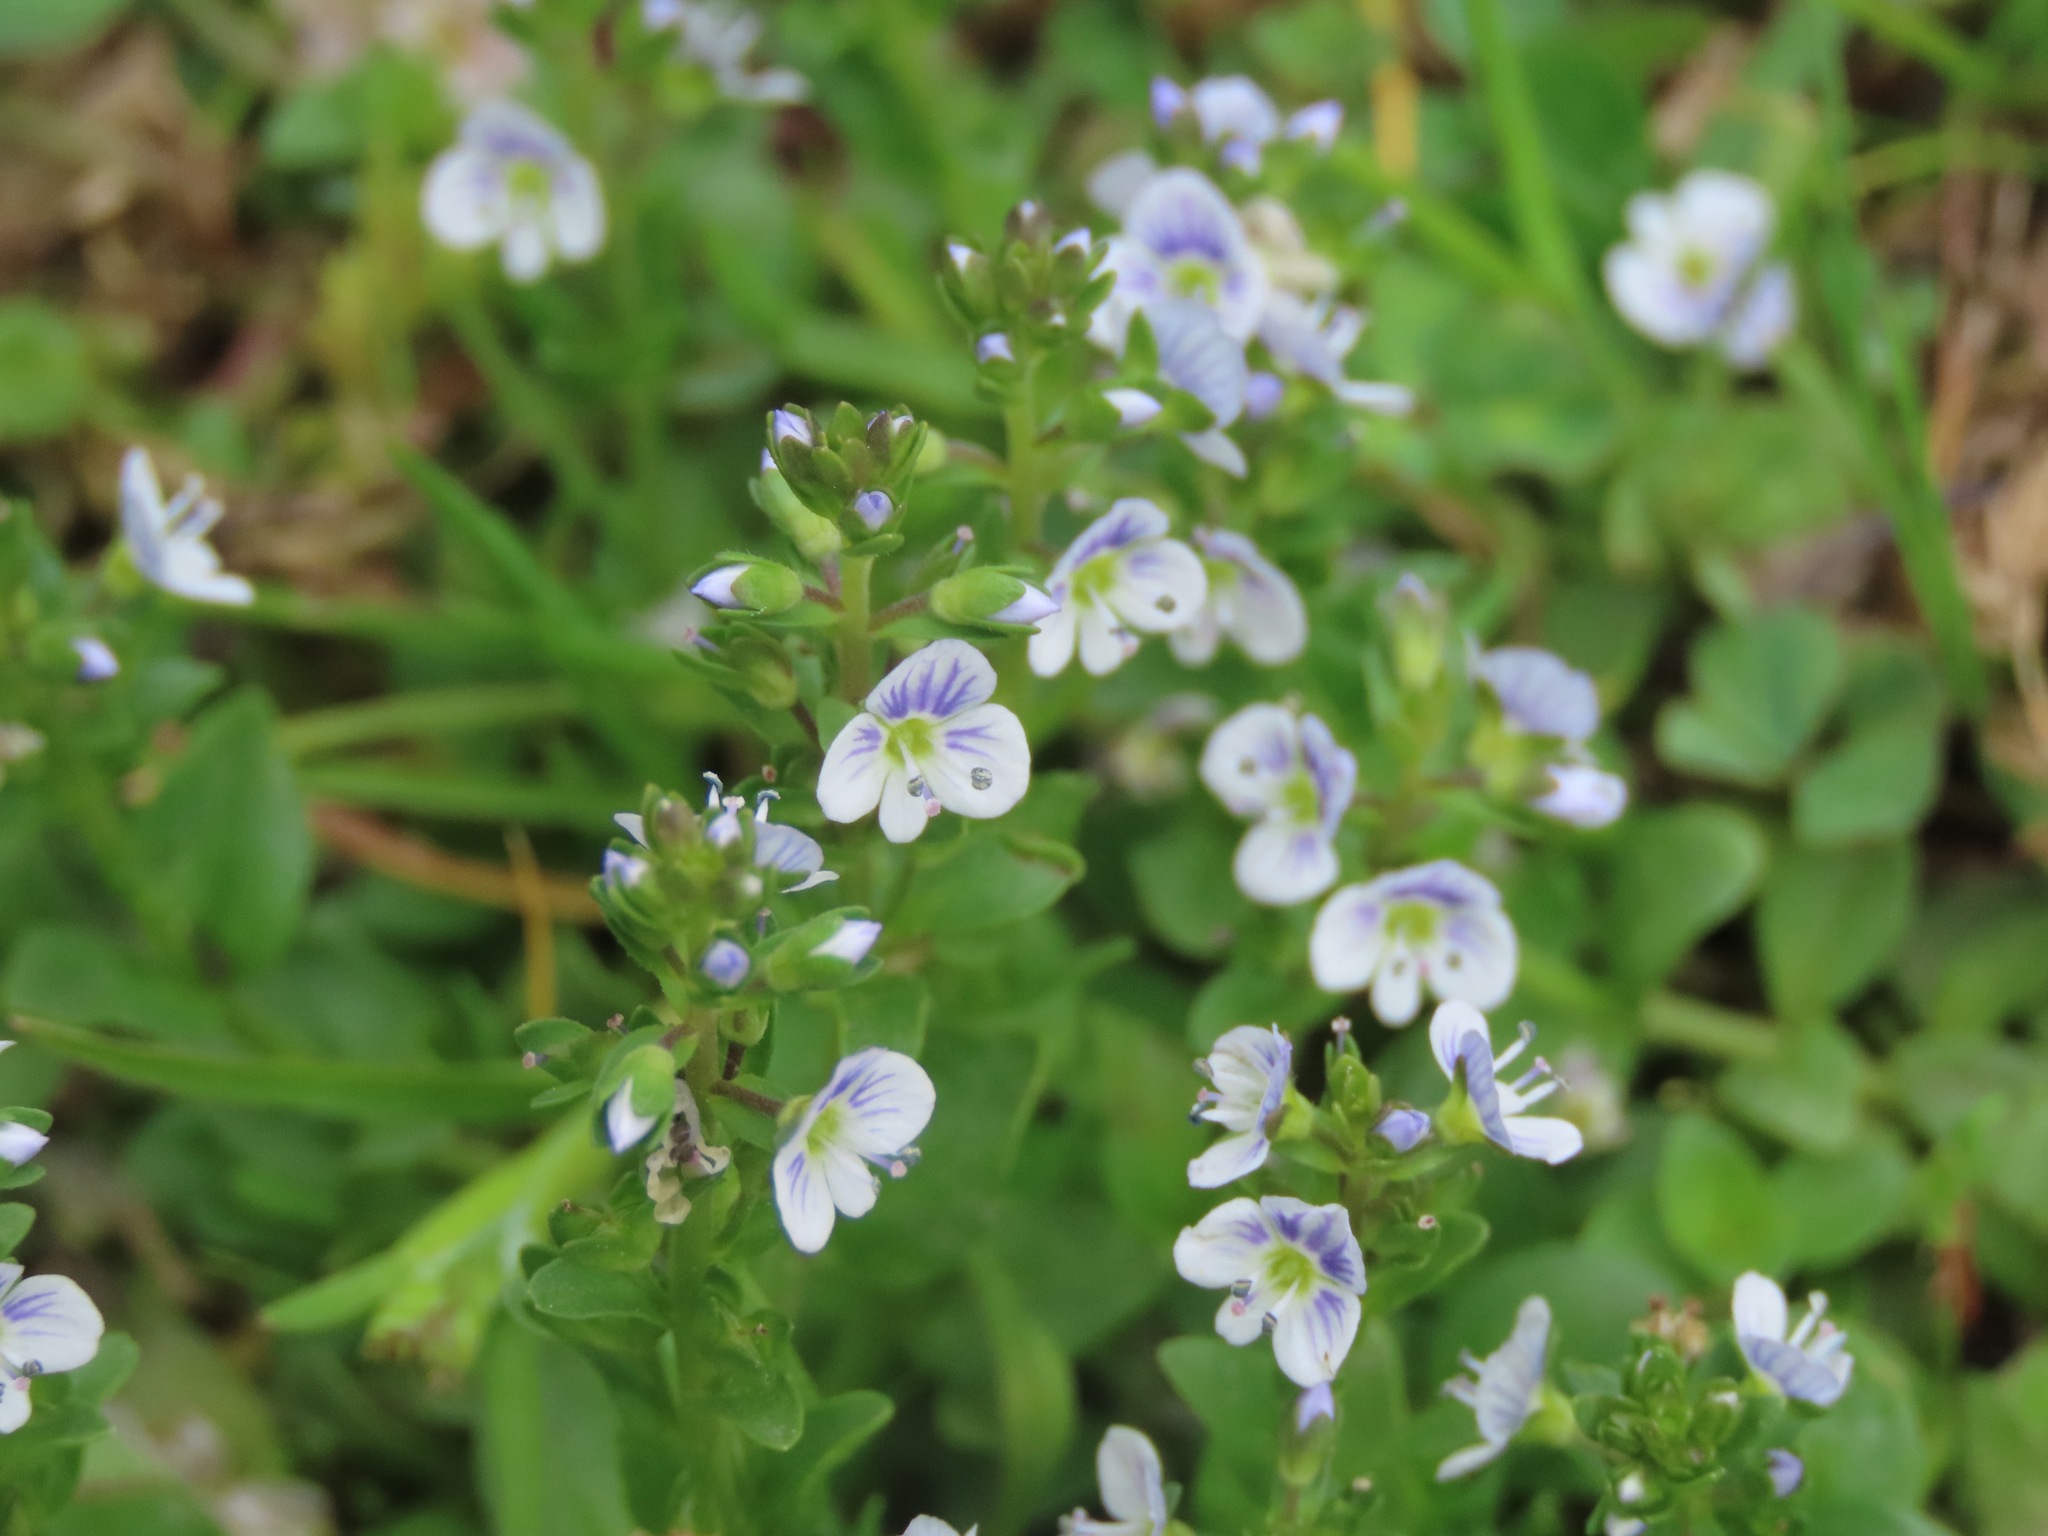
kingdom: Plantae
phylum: Tracheophyta
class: Magnoliopsida
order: Lamiales
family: Plantaginaceae
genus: Veronica
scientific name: Veronica serpyllifolia
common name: Thyme-leaved speedwell
